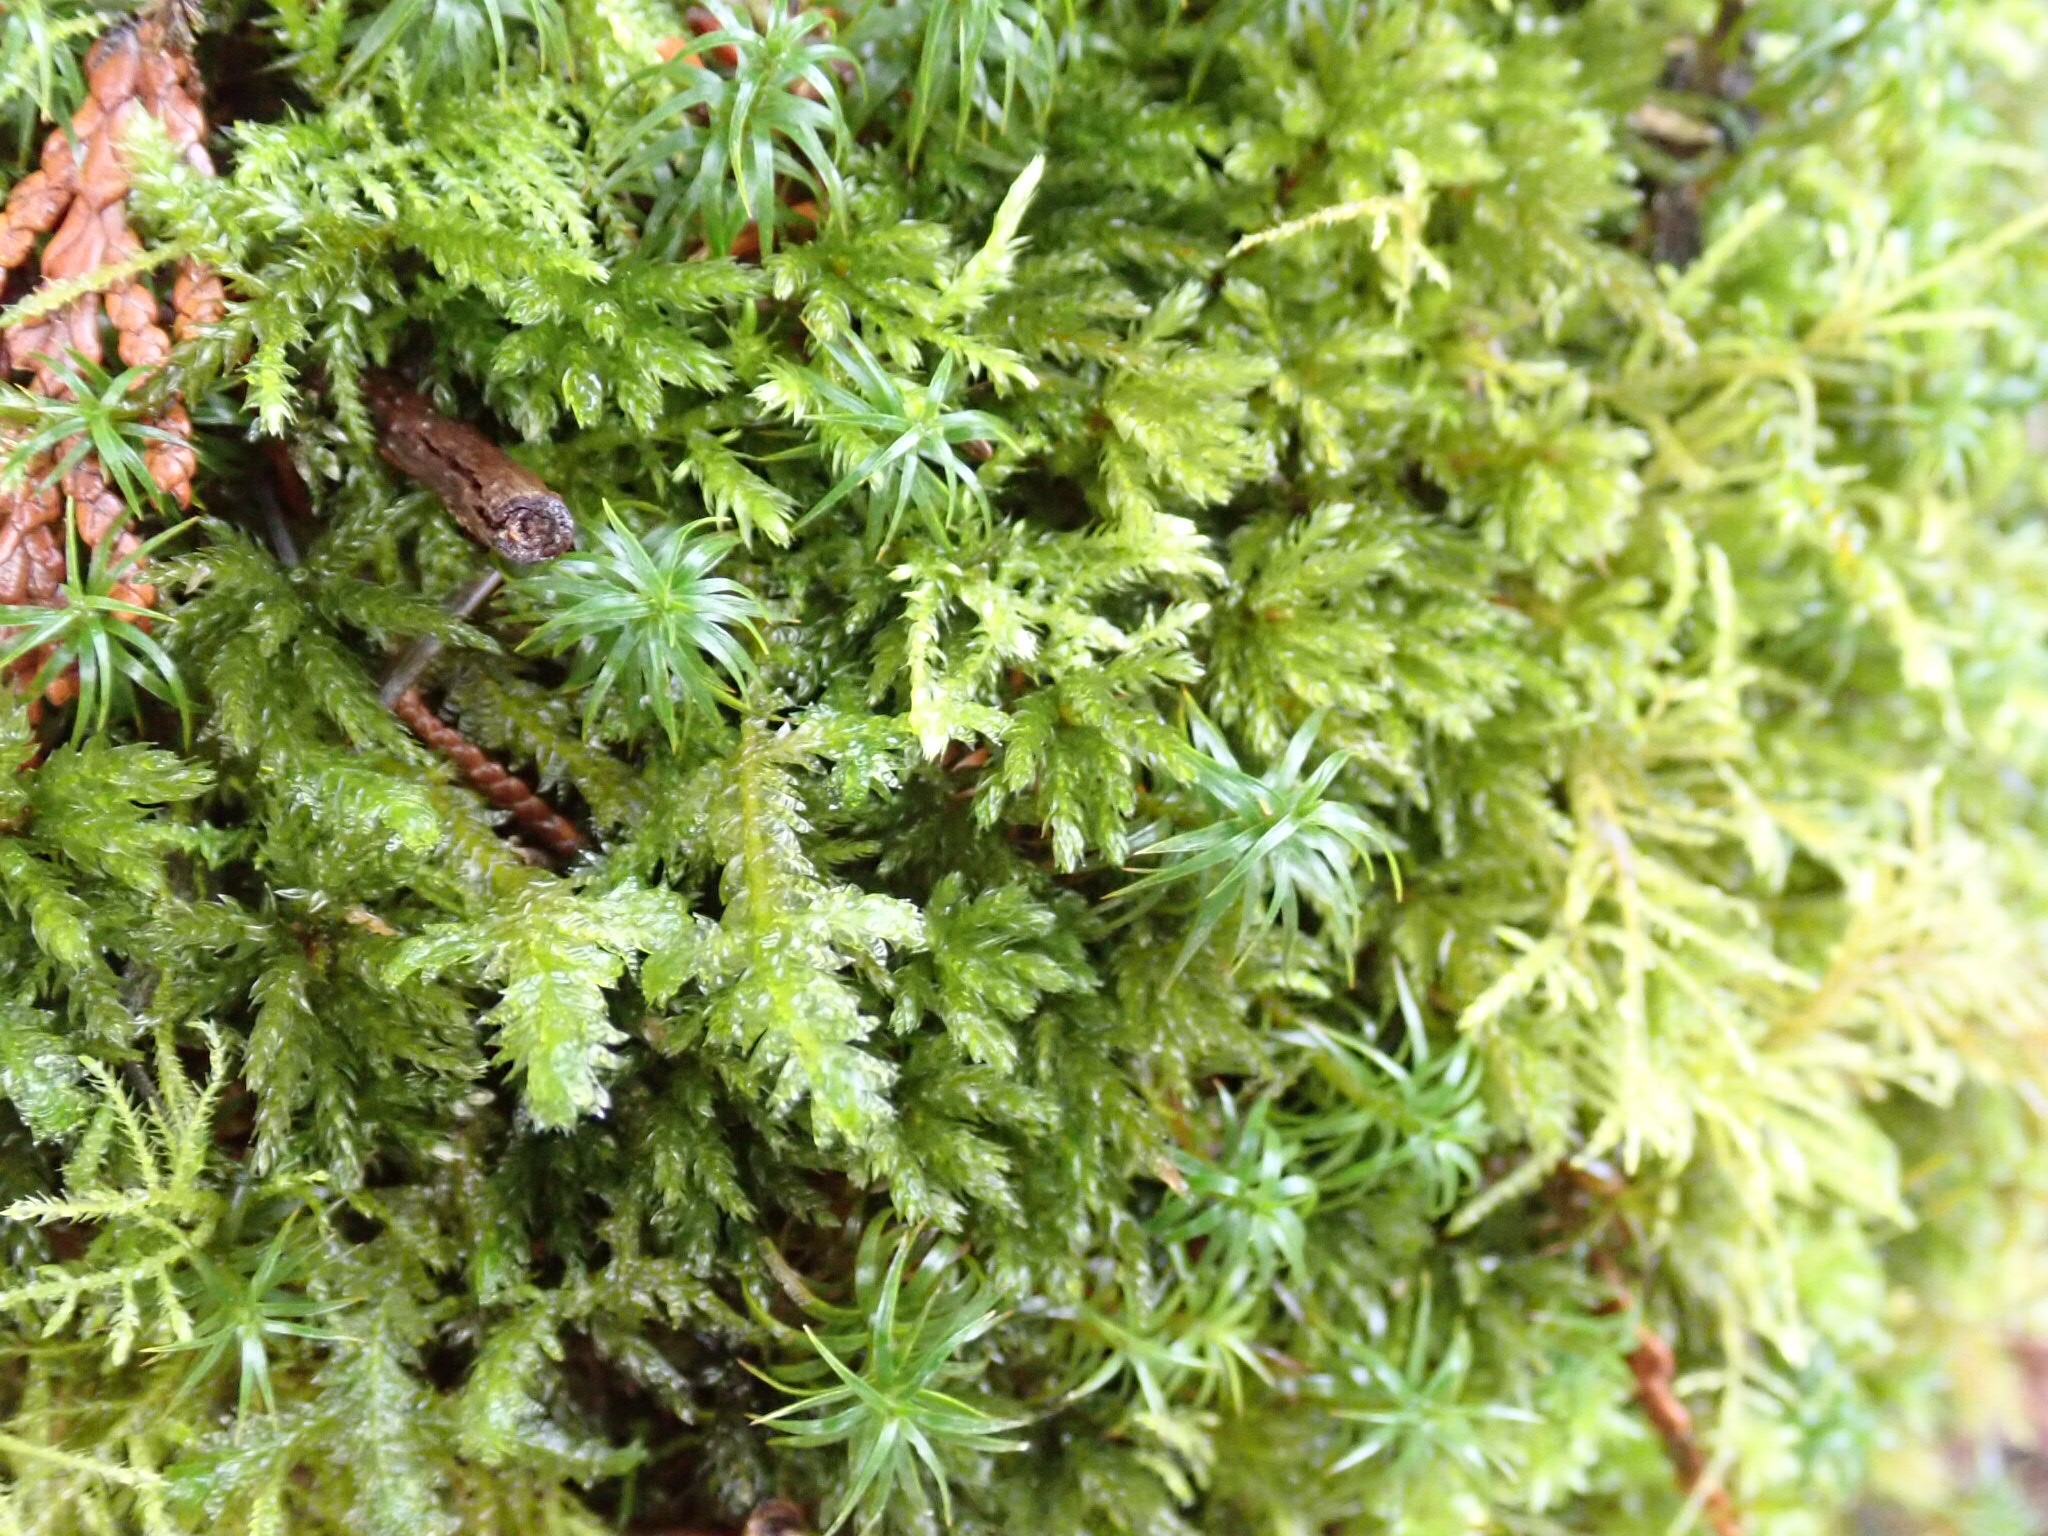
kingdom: Plantae
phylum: Bryophyta
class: Bryopsida
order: Hypnales
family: Neckeraceae
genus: Neckera
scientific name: Neckera douglasii
